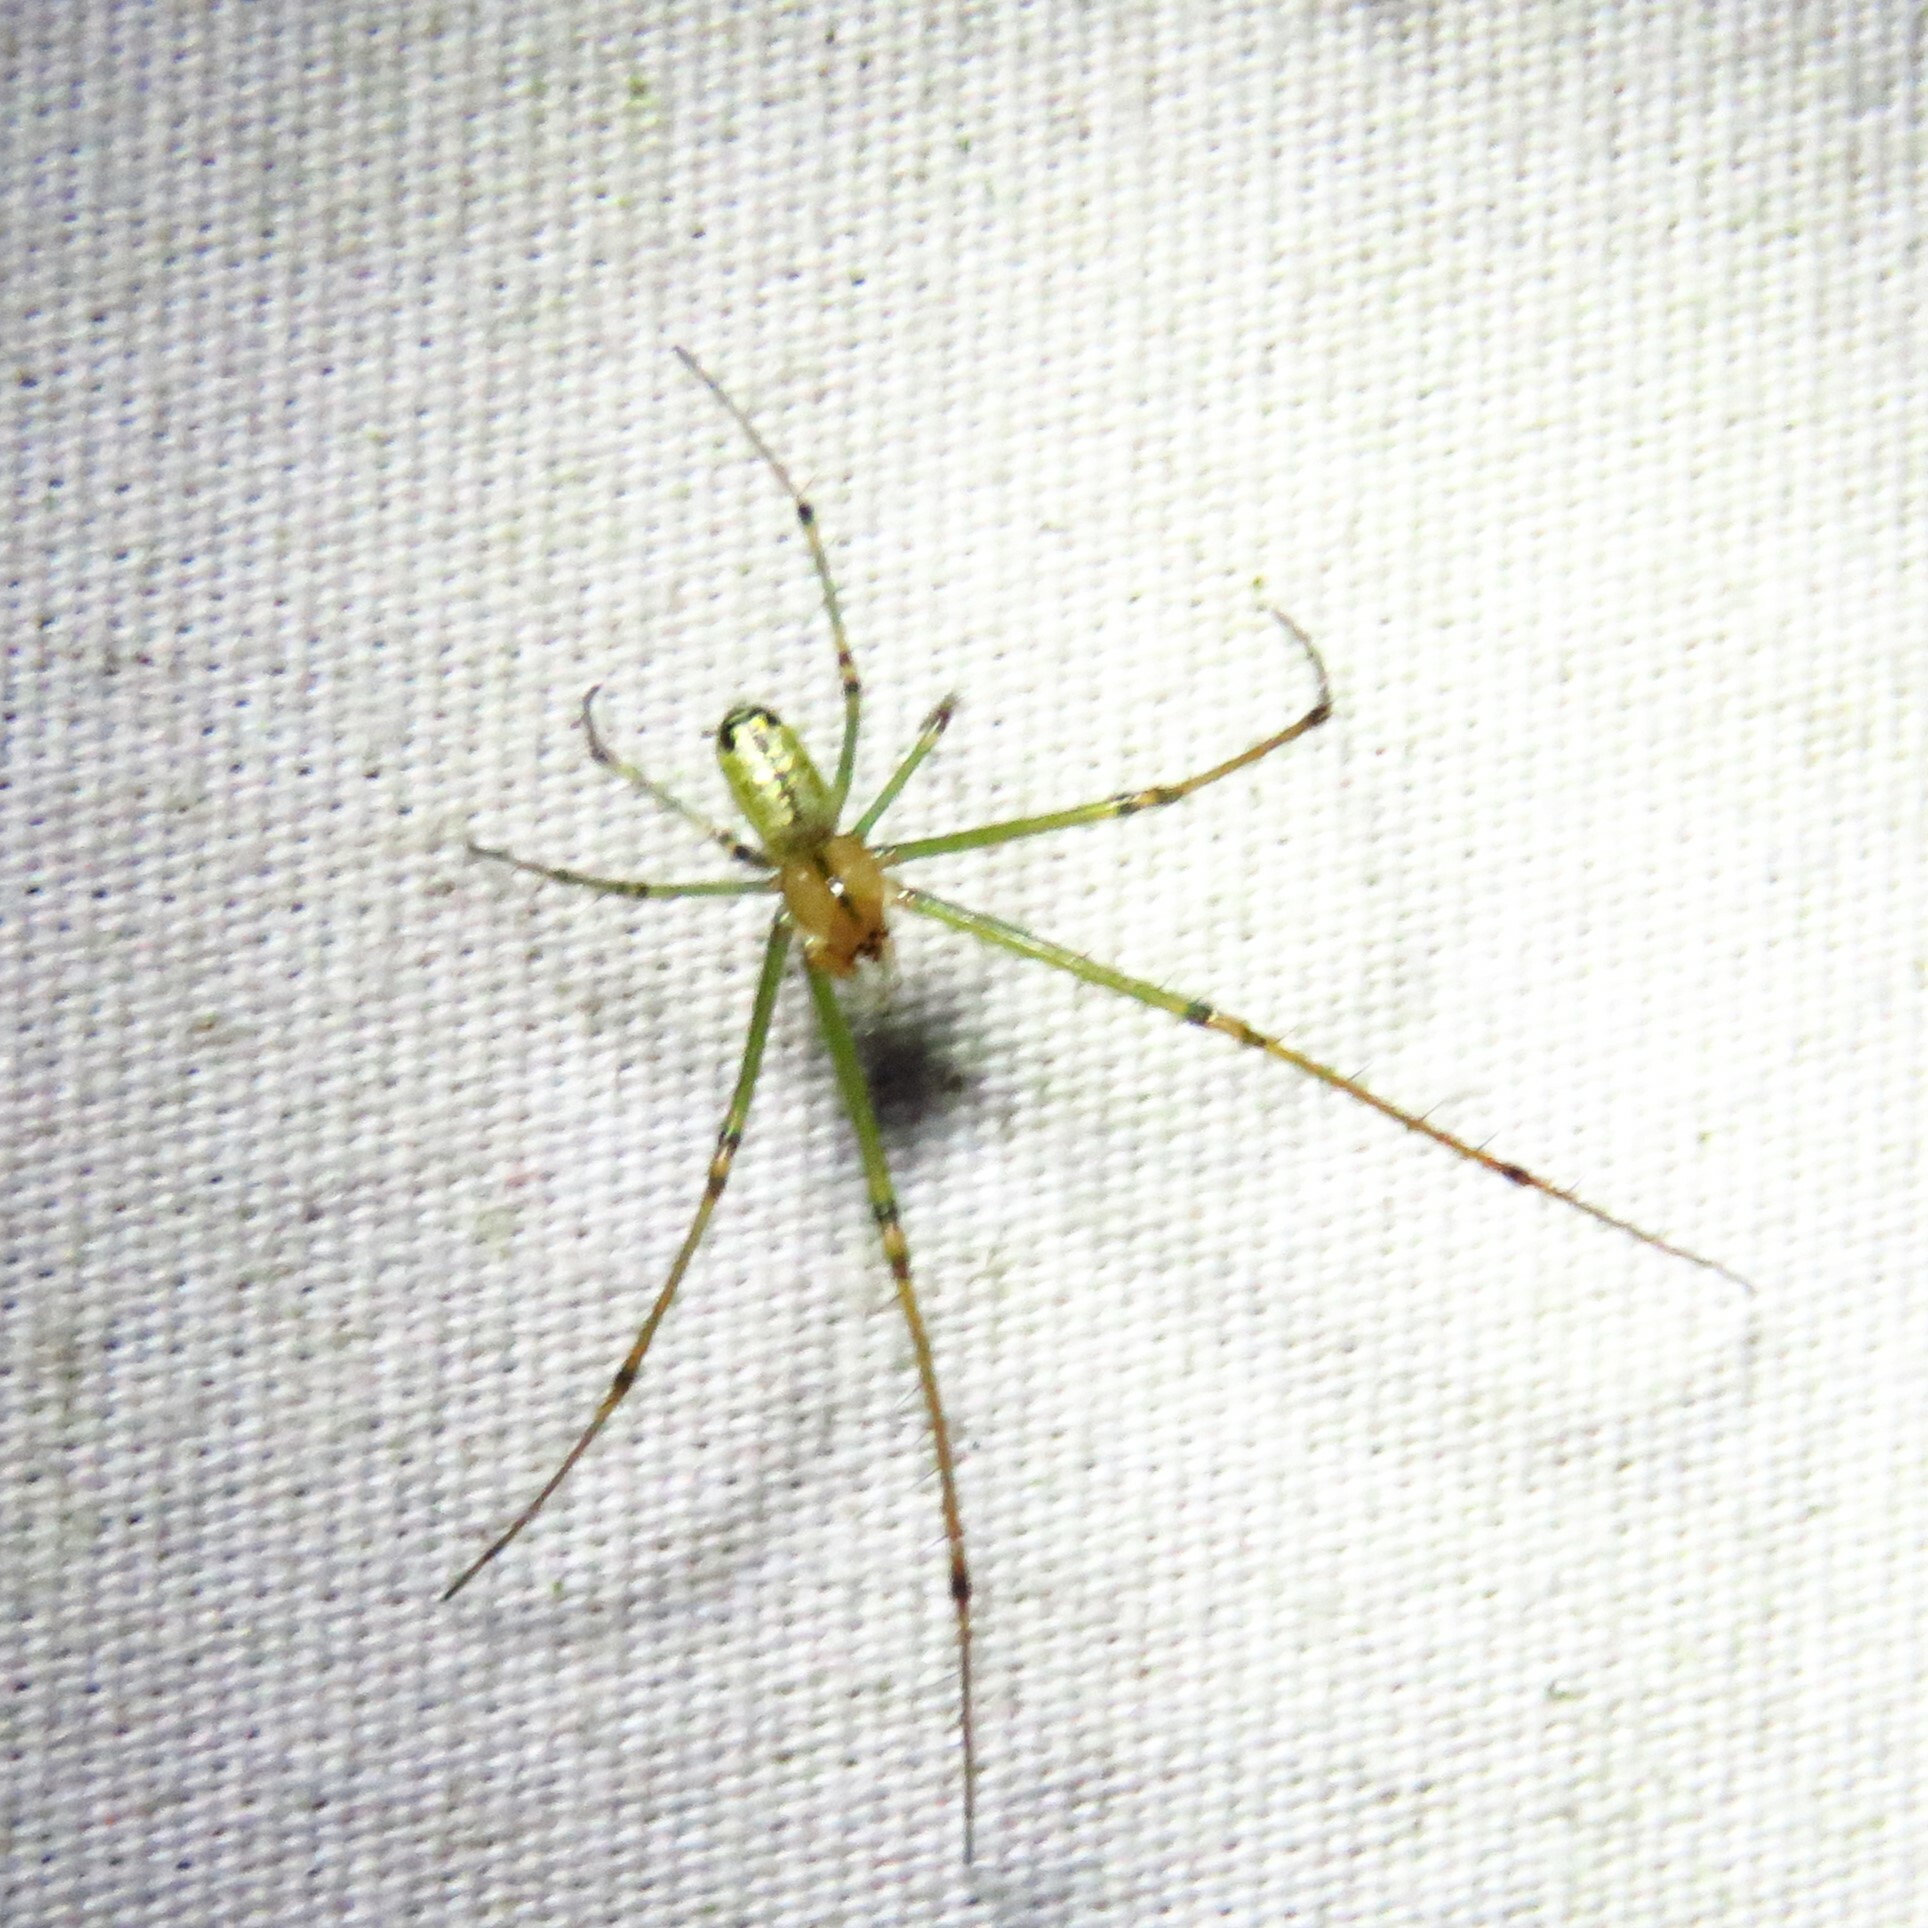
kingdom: Animalia
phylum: Arthropoda
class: Arachnida
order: Araneae
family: Tetragnathidae
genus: Leucauge
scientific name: Leucauge venusta
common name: Longjawed orb weavers
